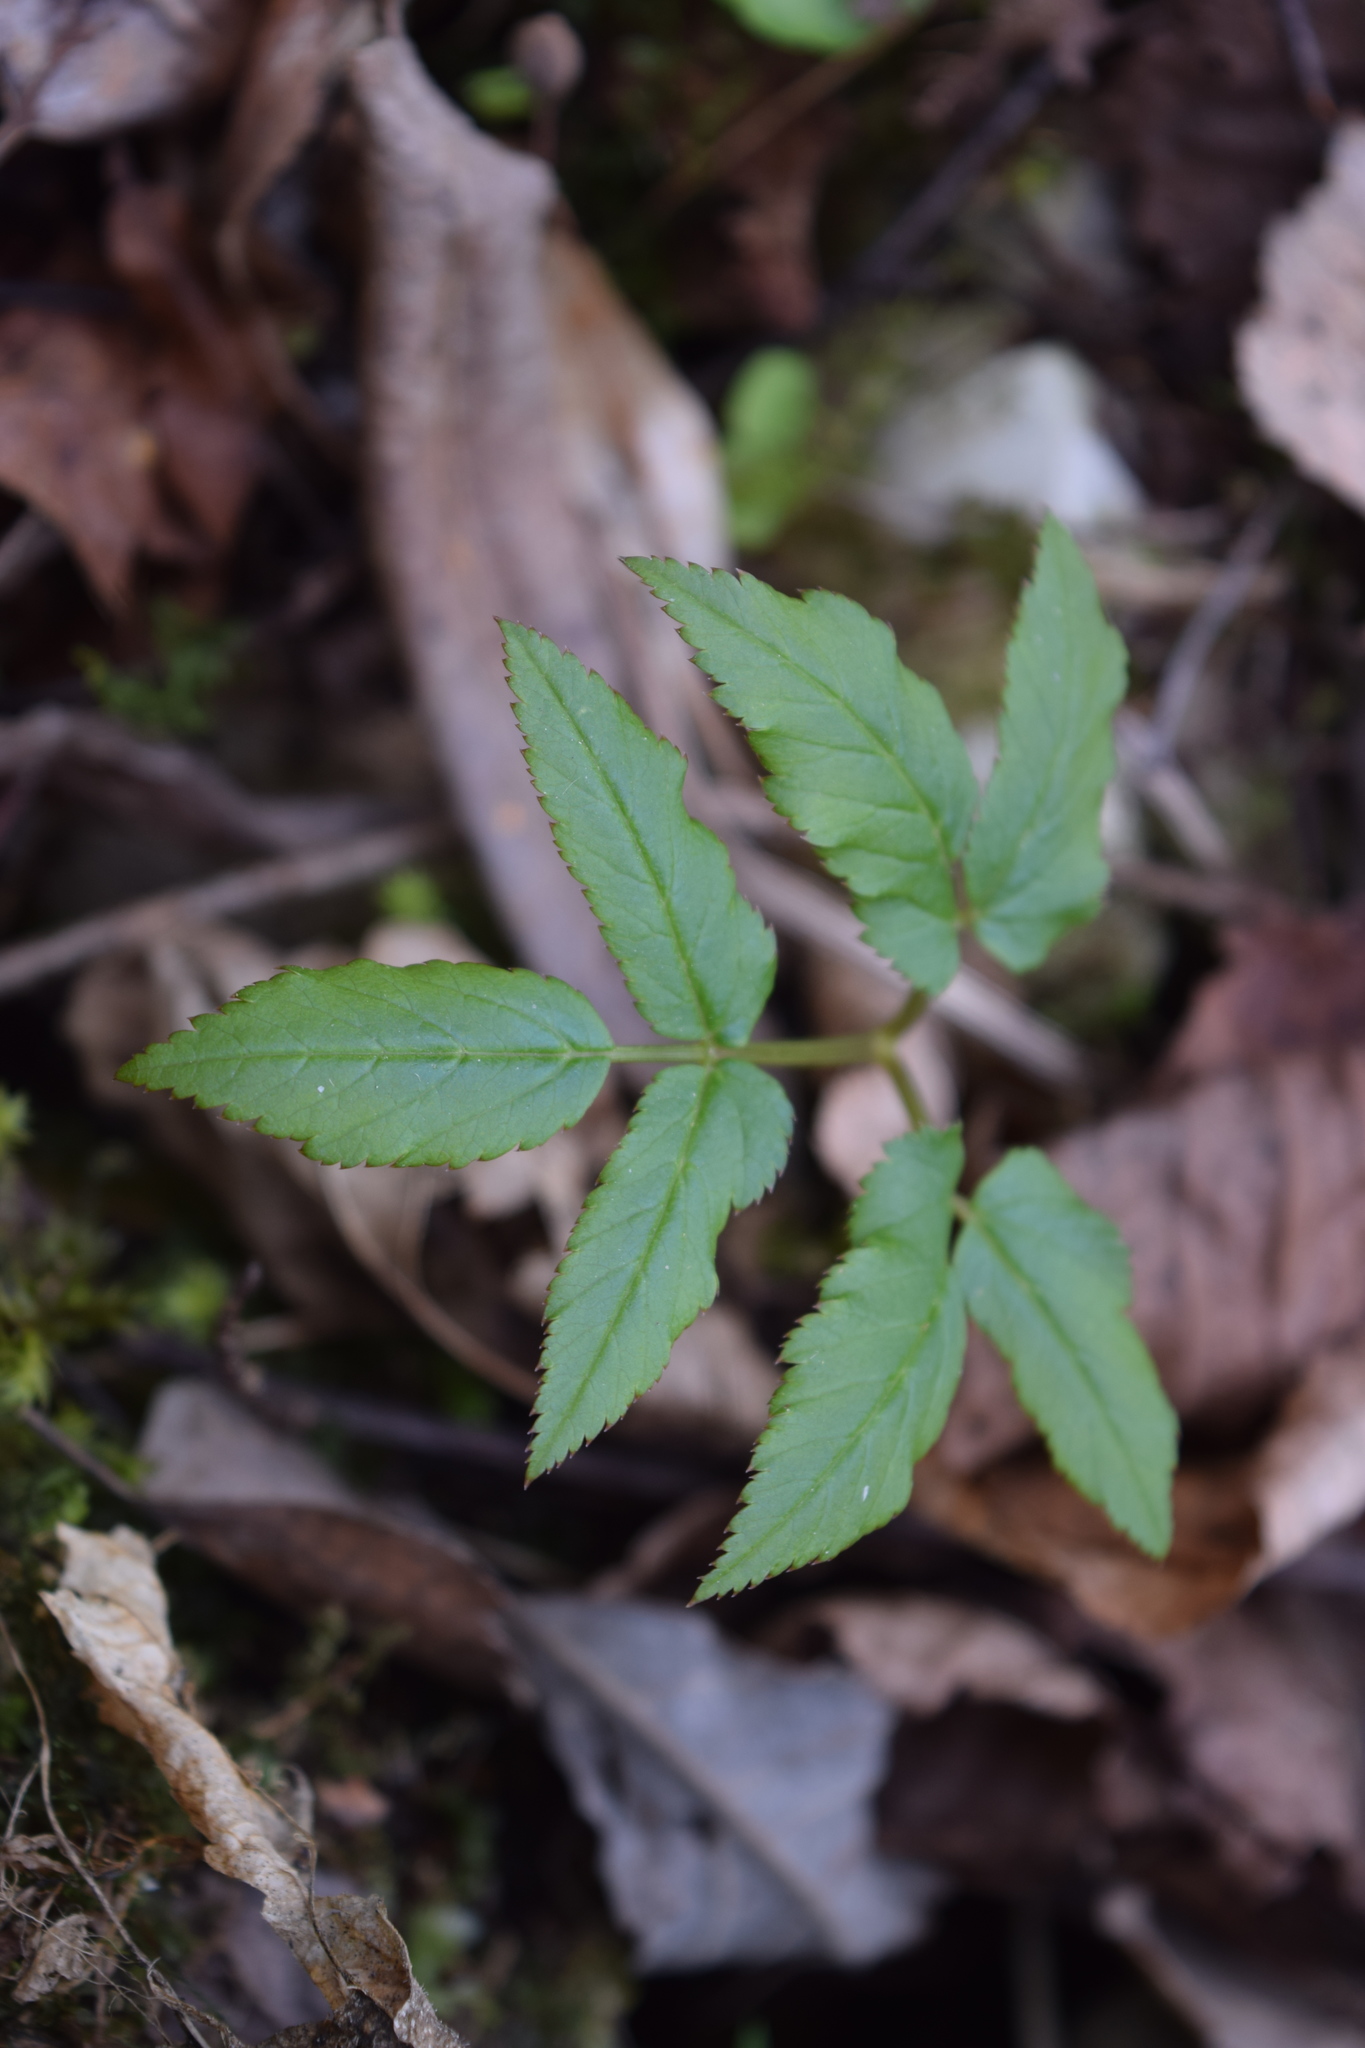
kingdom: Plantae
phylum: Tracheophyta
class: Magnoliopsida
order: Apiales
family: Apiaceae
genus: Aegopodium
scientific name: Aegopodium podagraria
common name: Ground-elder
